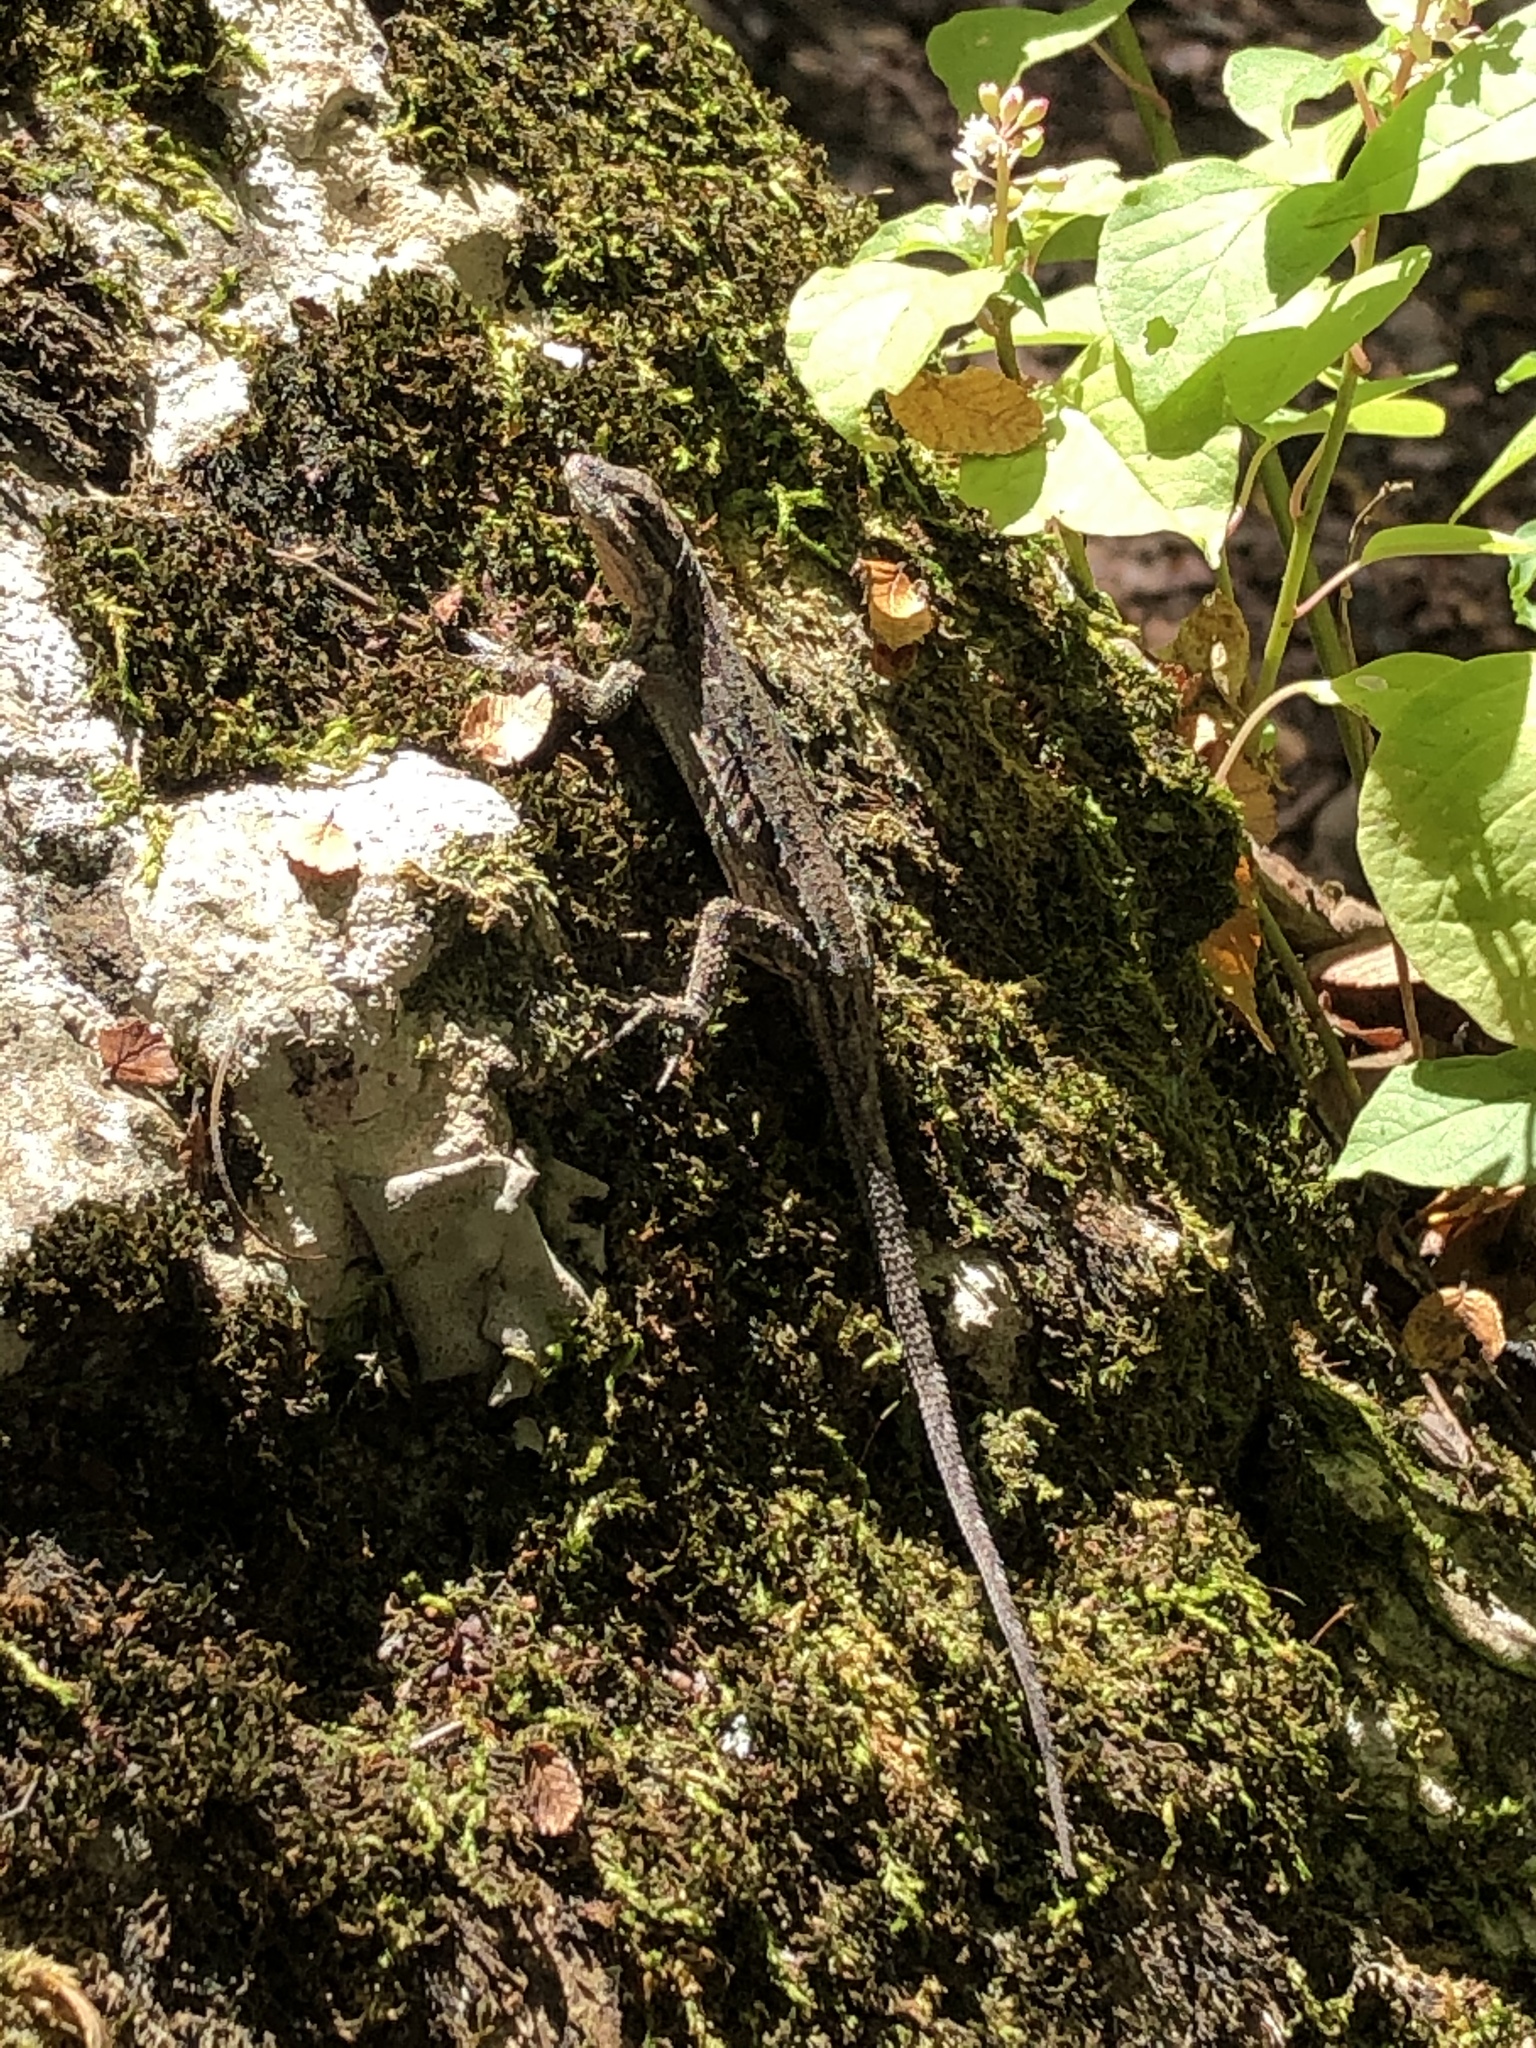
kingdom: Animalia
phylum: Chordata
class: Squamata
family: Phrynosomatidae
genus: Urosaurus
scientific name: Urosaurus ornatus
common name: Ornate tree lizard
